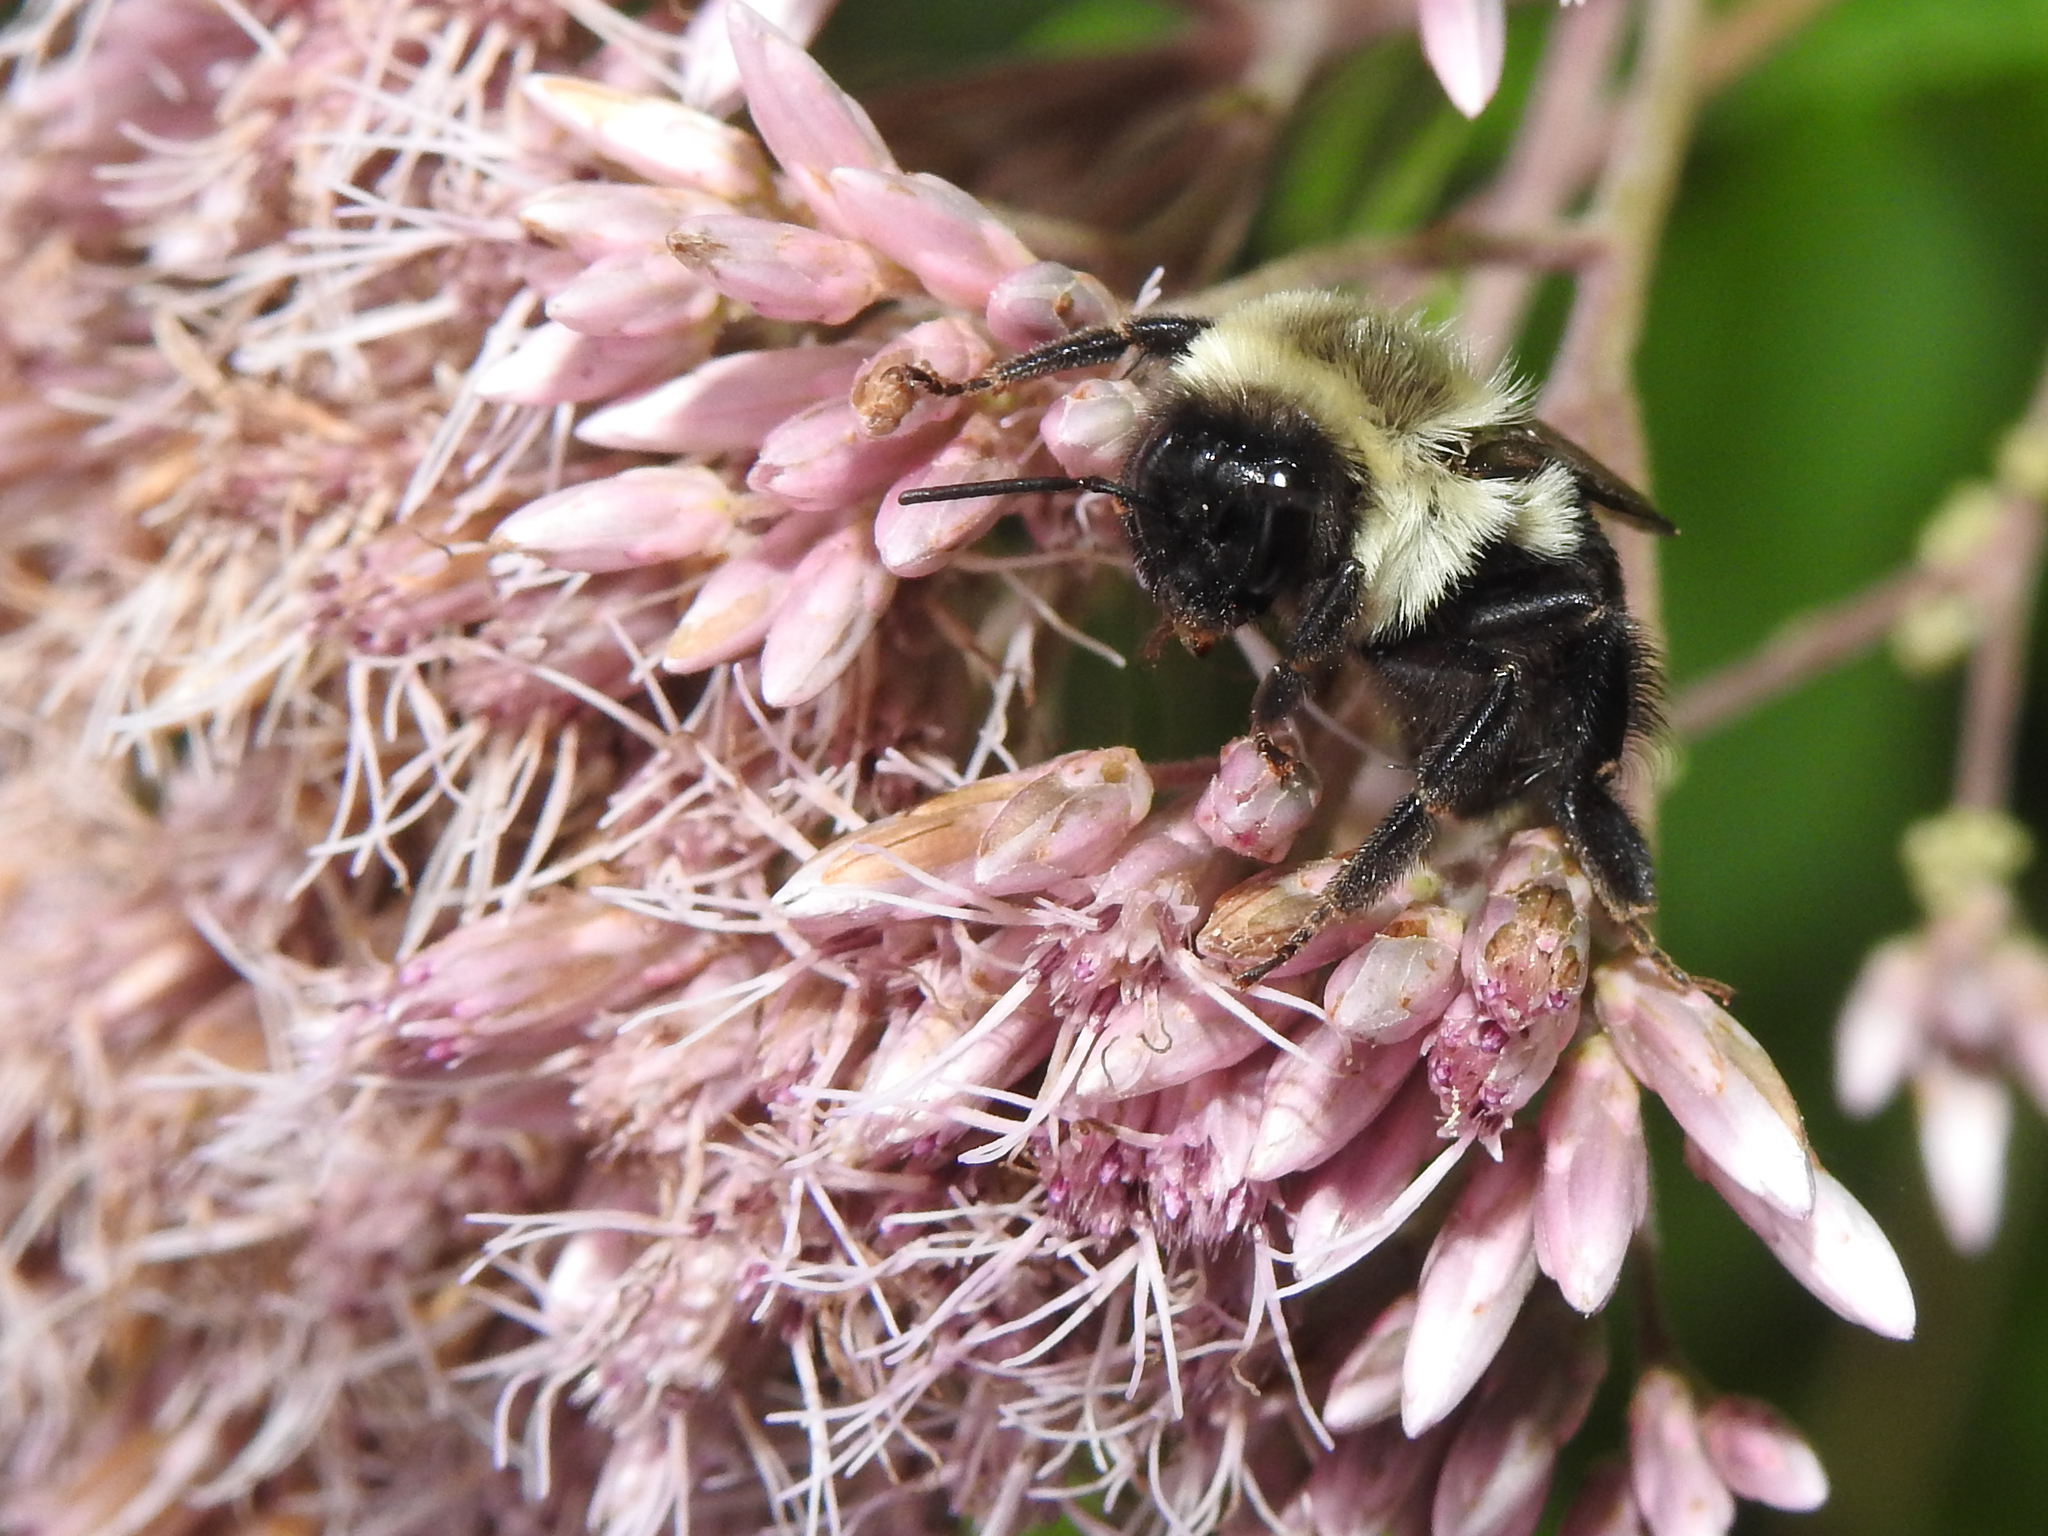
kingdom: Animalia
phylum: Arthropoda
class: Insecta
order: Hymenoptera
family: Apidae
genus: Bombus
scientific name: Bombus impatiens
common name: Common eastern bumble bee
